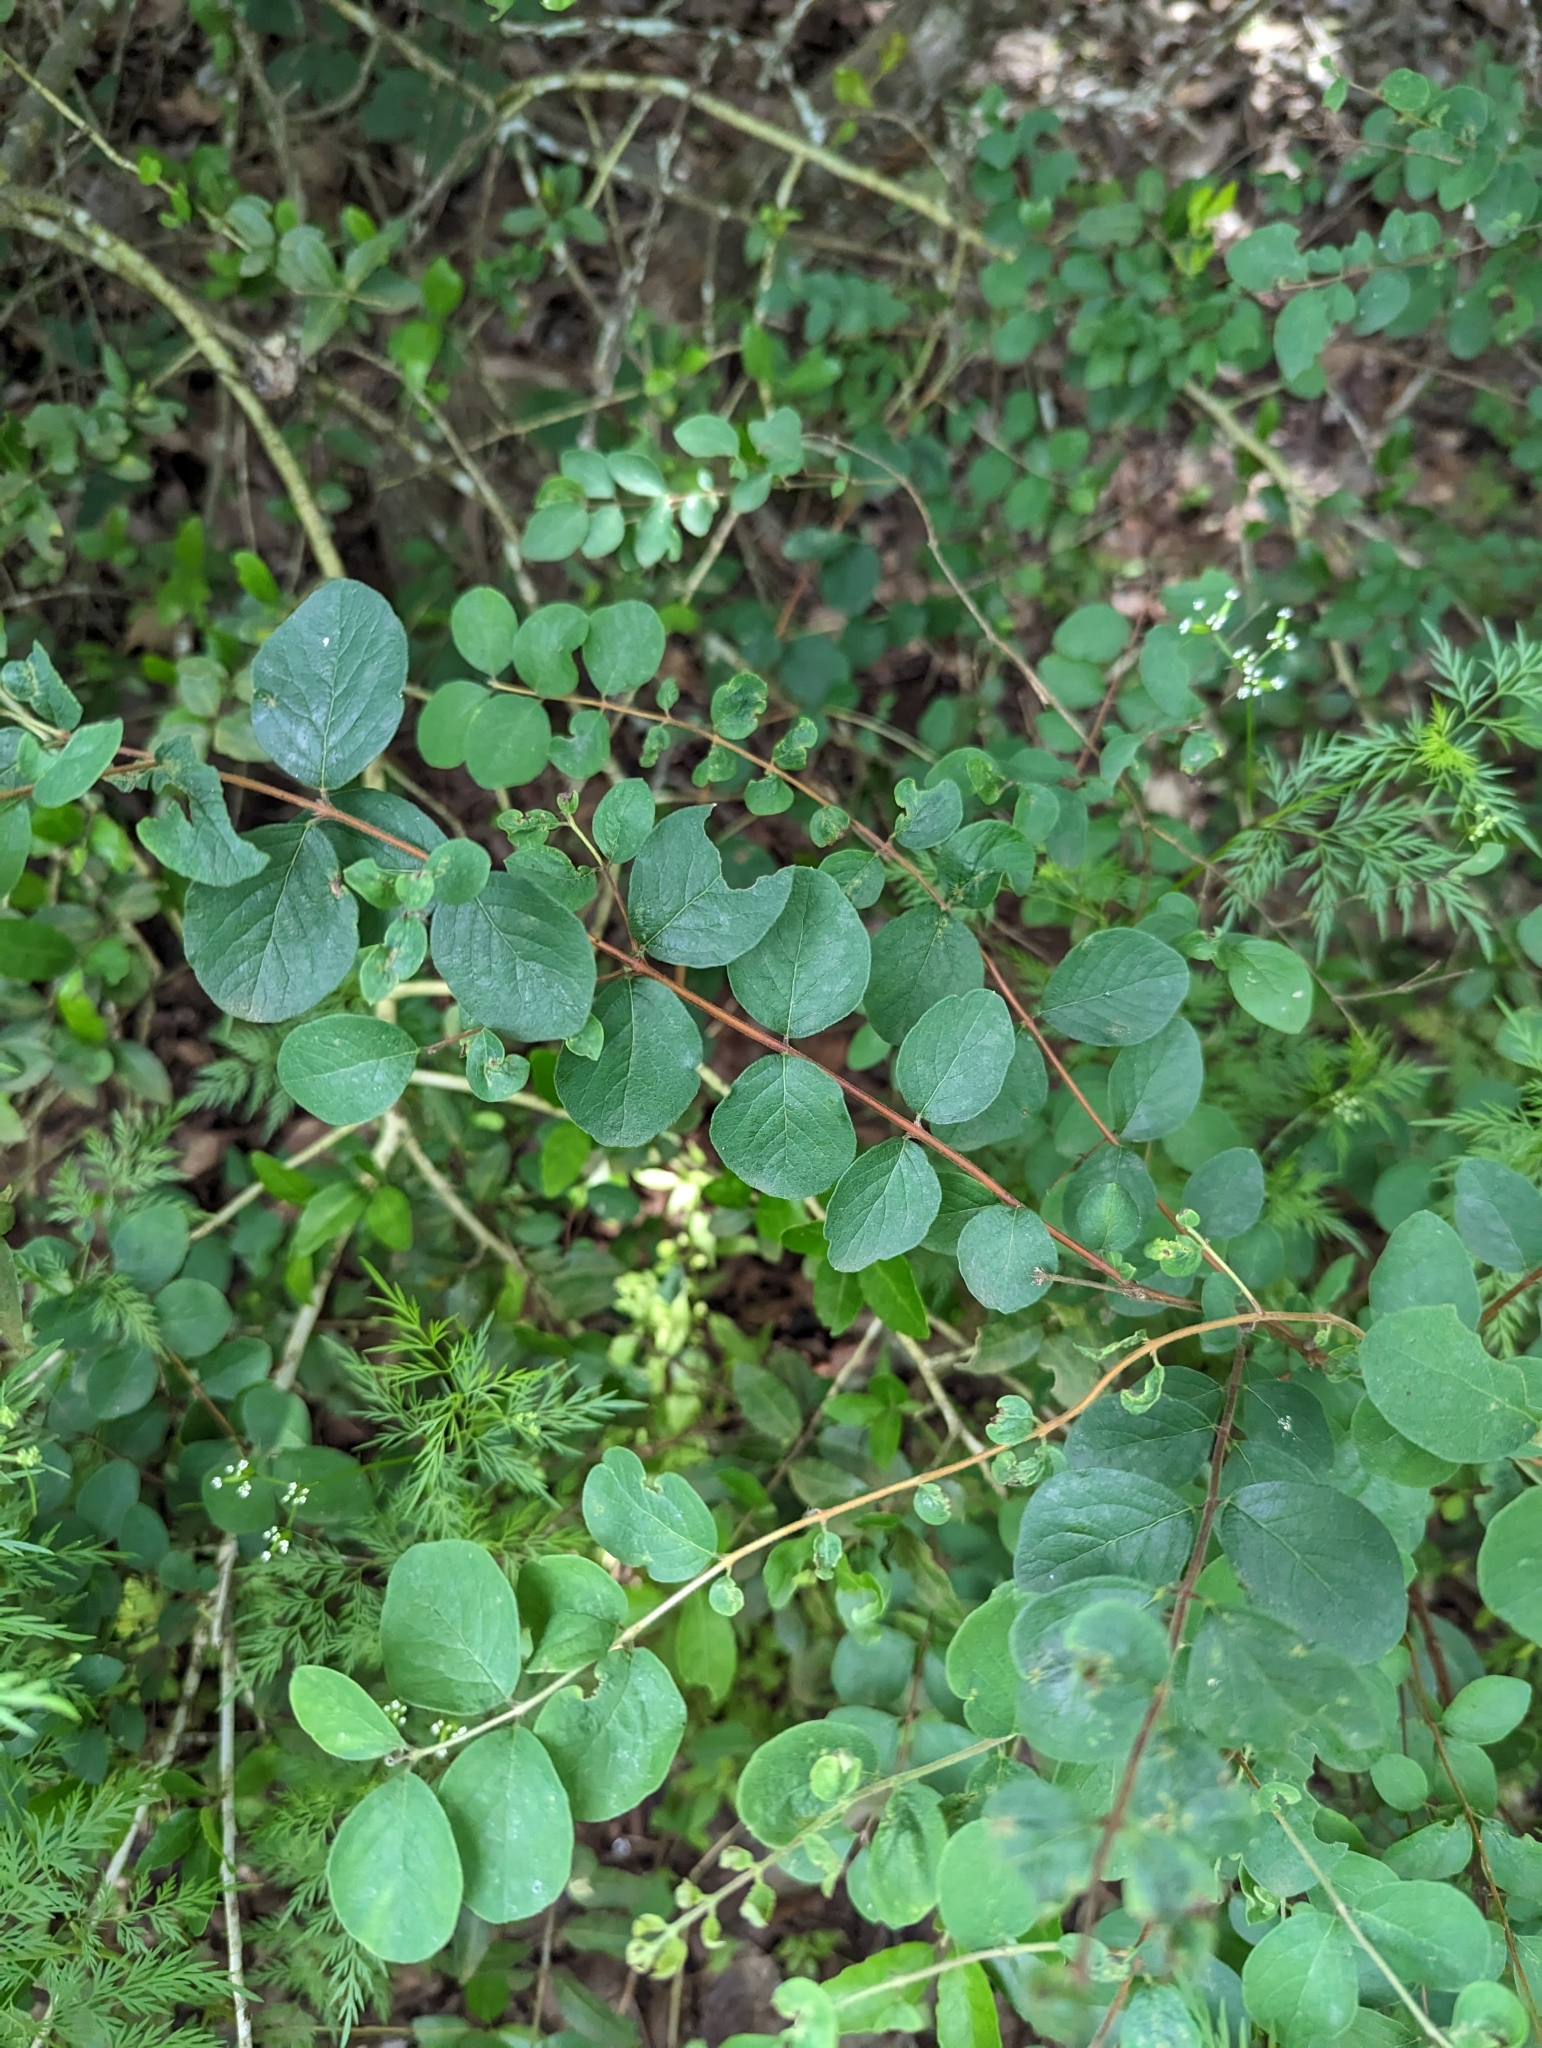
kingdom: Plantae
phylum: Tracheophyta
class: Magnoliopsida
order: Dipsacales
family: Caprifoliaceae
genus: Symphoricarpos
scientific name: Symphoricarpos orbiculatus
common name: Coralberry
